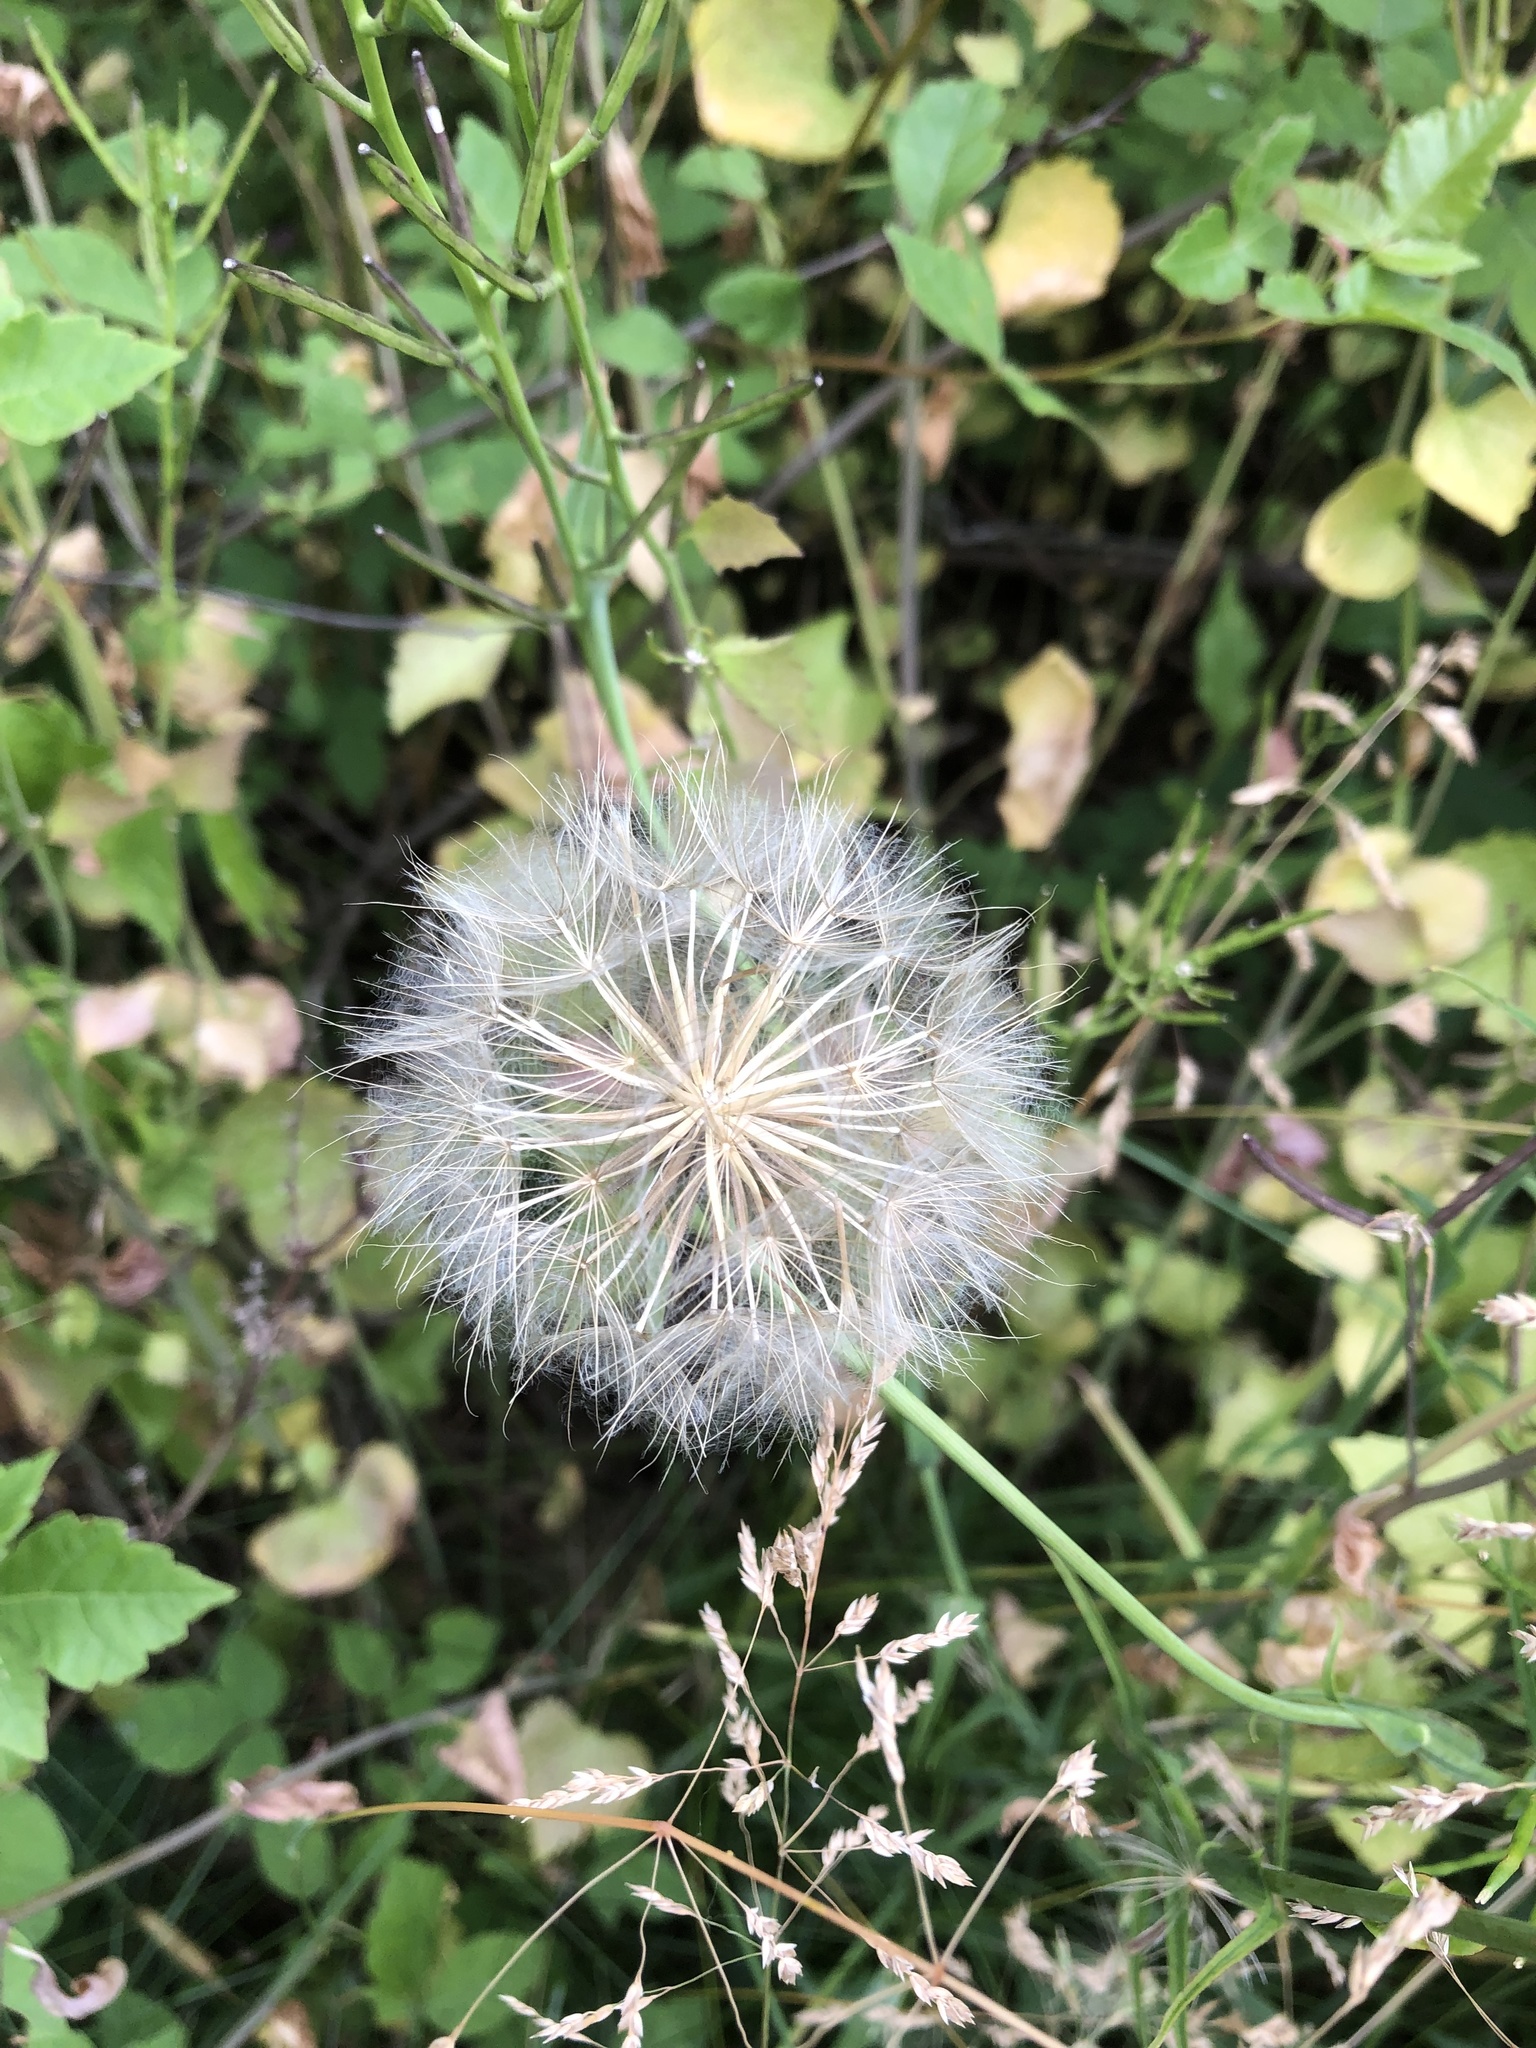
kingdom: Plantae
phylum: Tracheophyta
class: Magnoliopsida
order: Asterales
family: Asteraceae
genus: Tragopogon
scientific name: Tragopogon pratensis
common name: Goat's-beard
